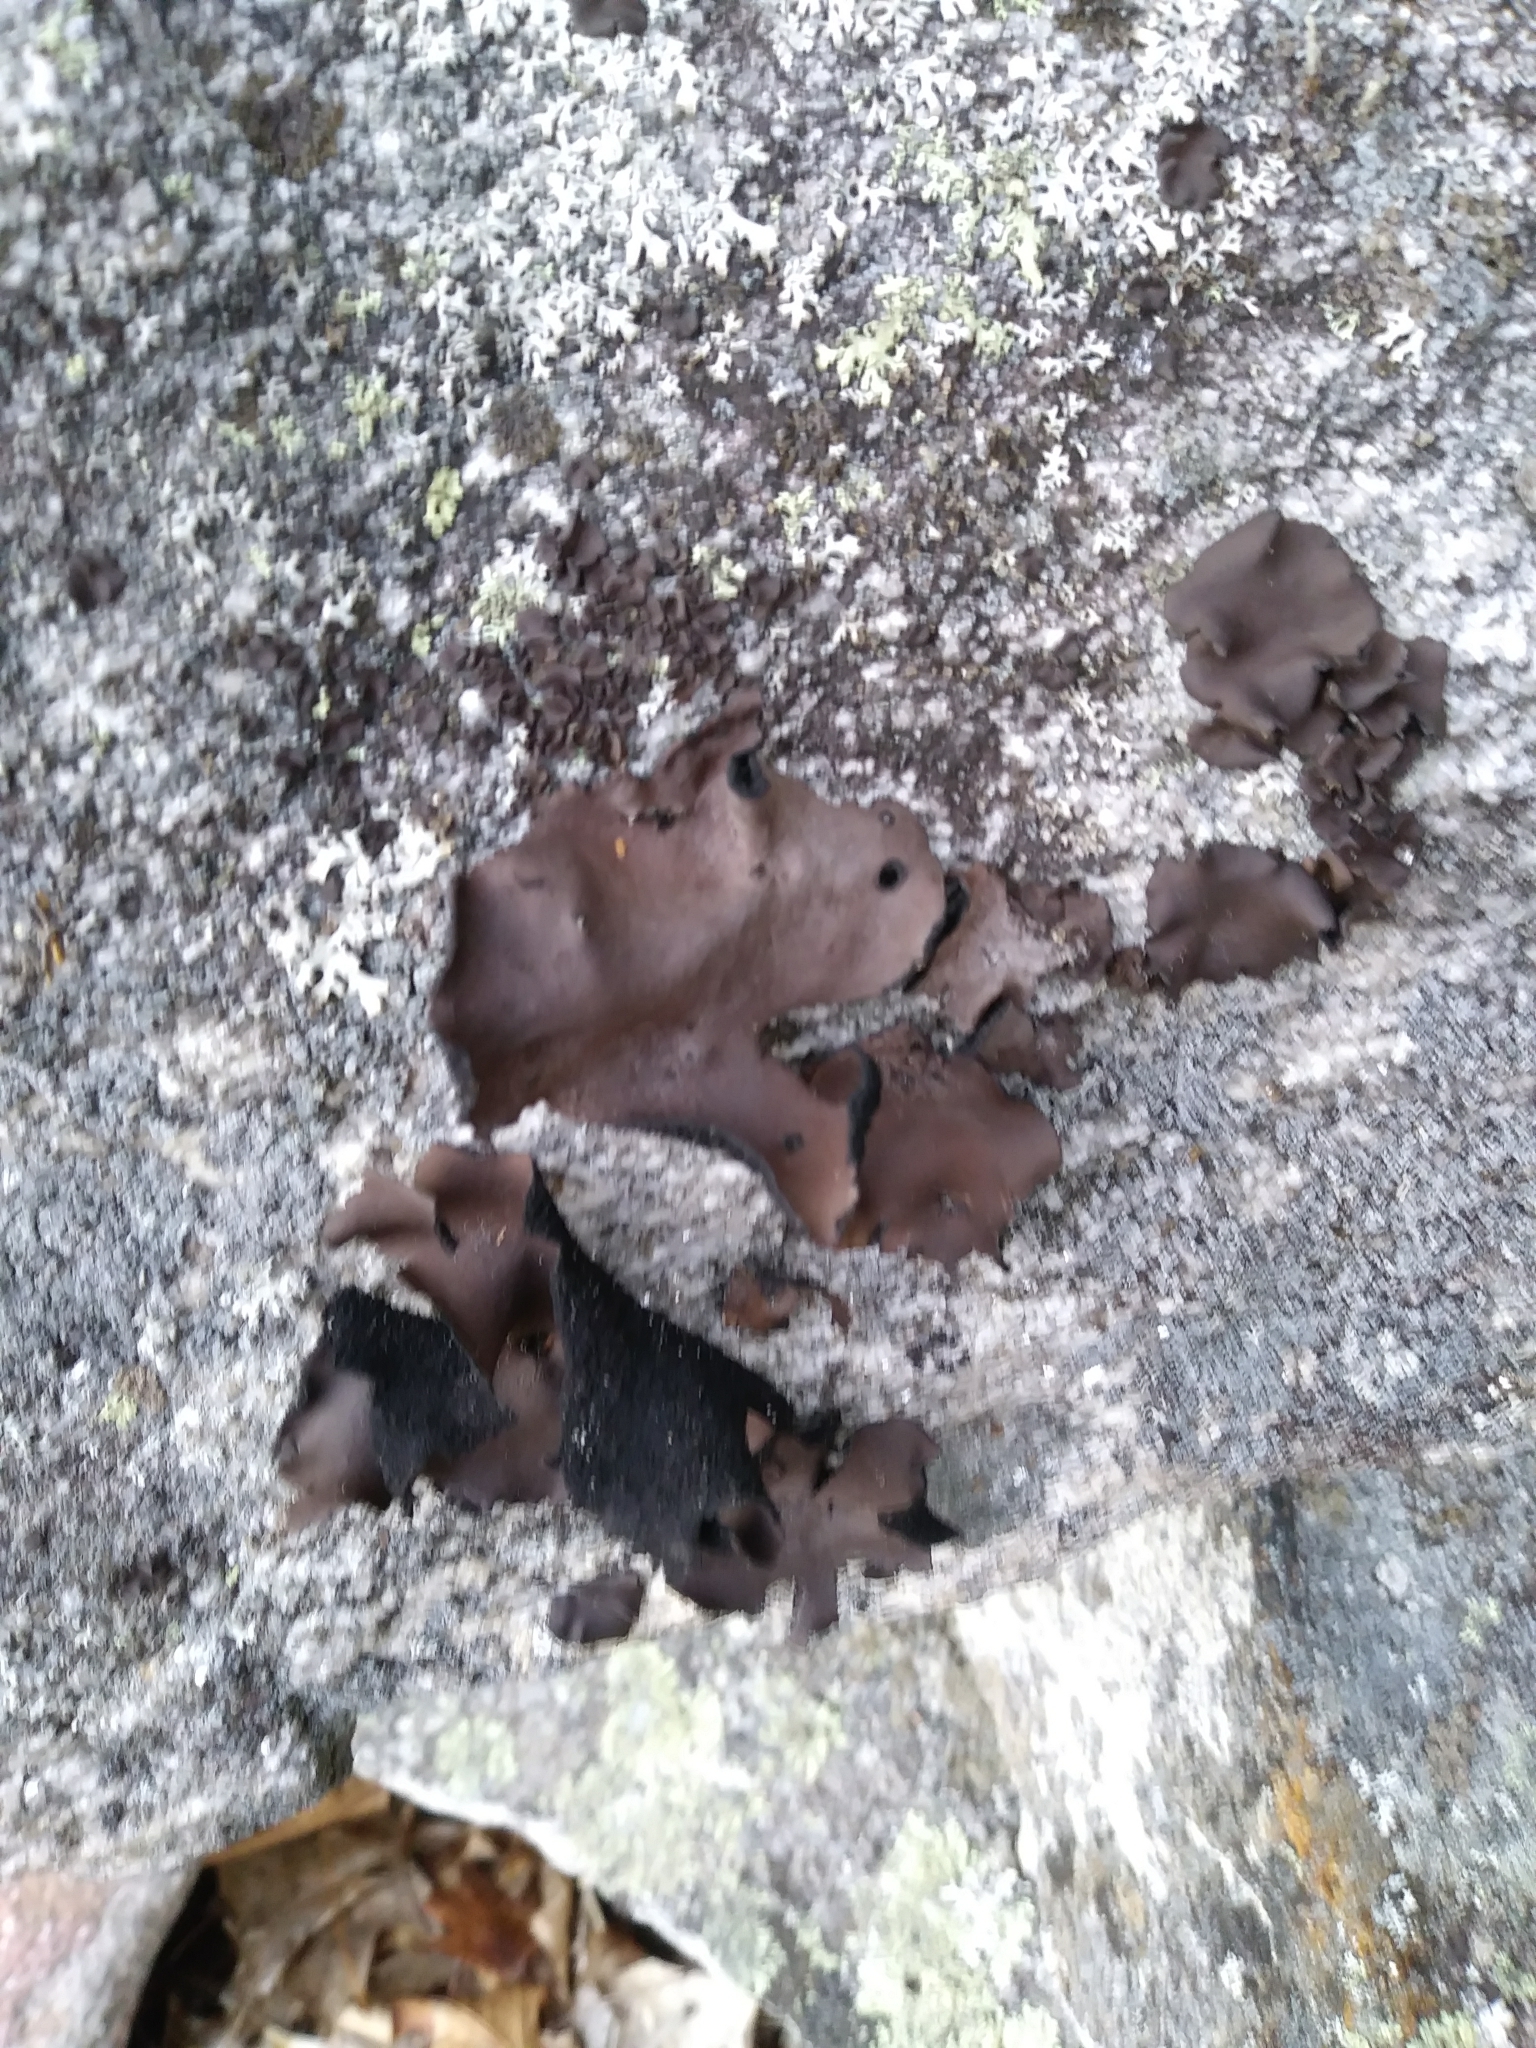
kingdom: Fungi
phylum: Ascomycota
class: Lecanoromycetes
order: Umbilicariales
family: Umbilicariaceae
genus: Umbilicaria
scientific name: Umbilicaria mammulata
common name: Smooth rock tripe
